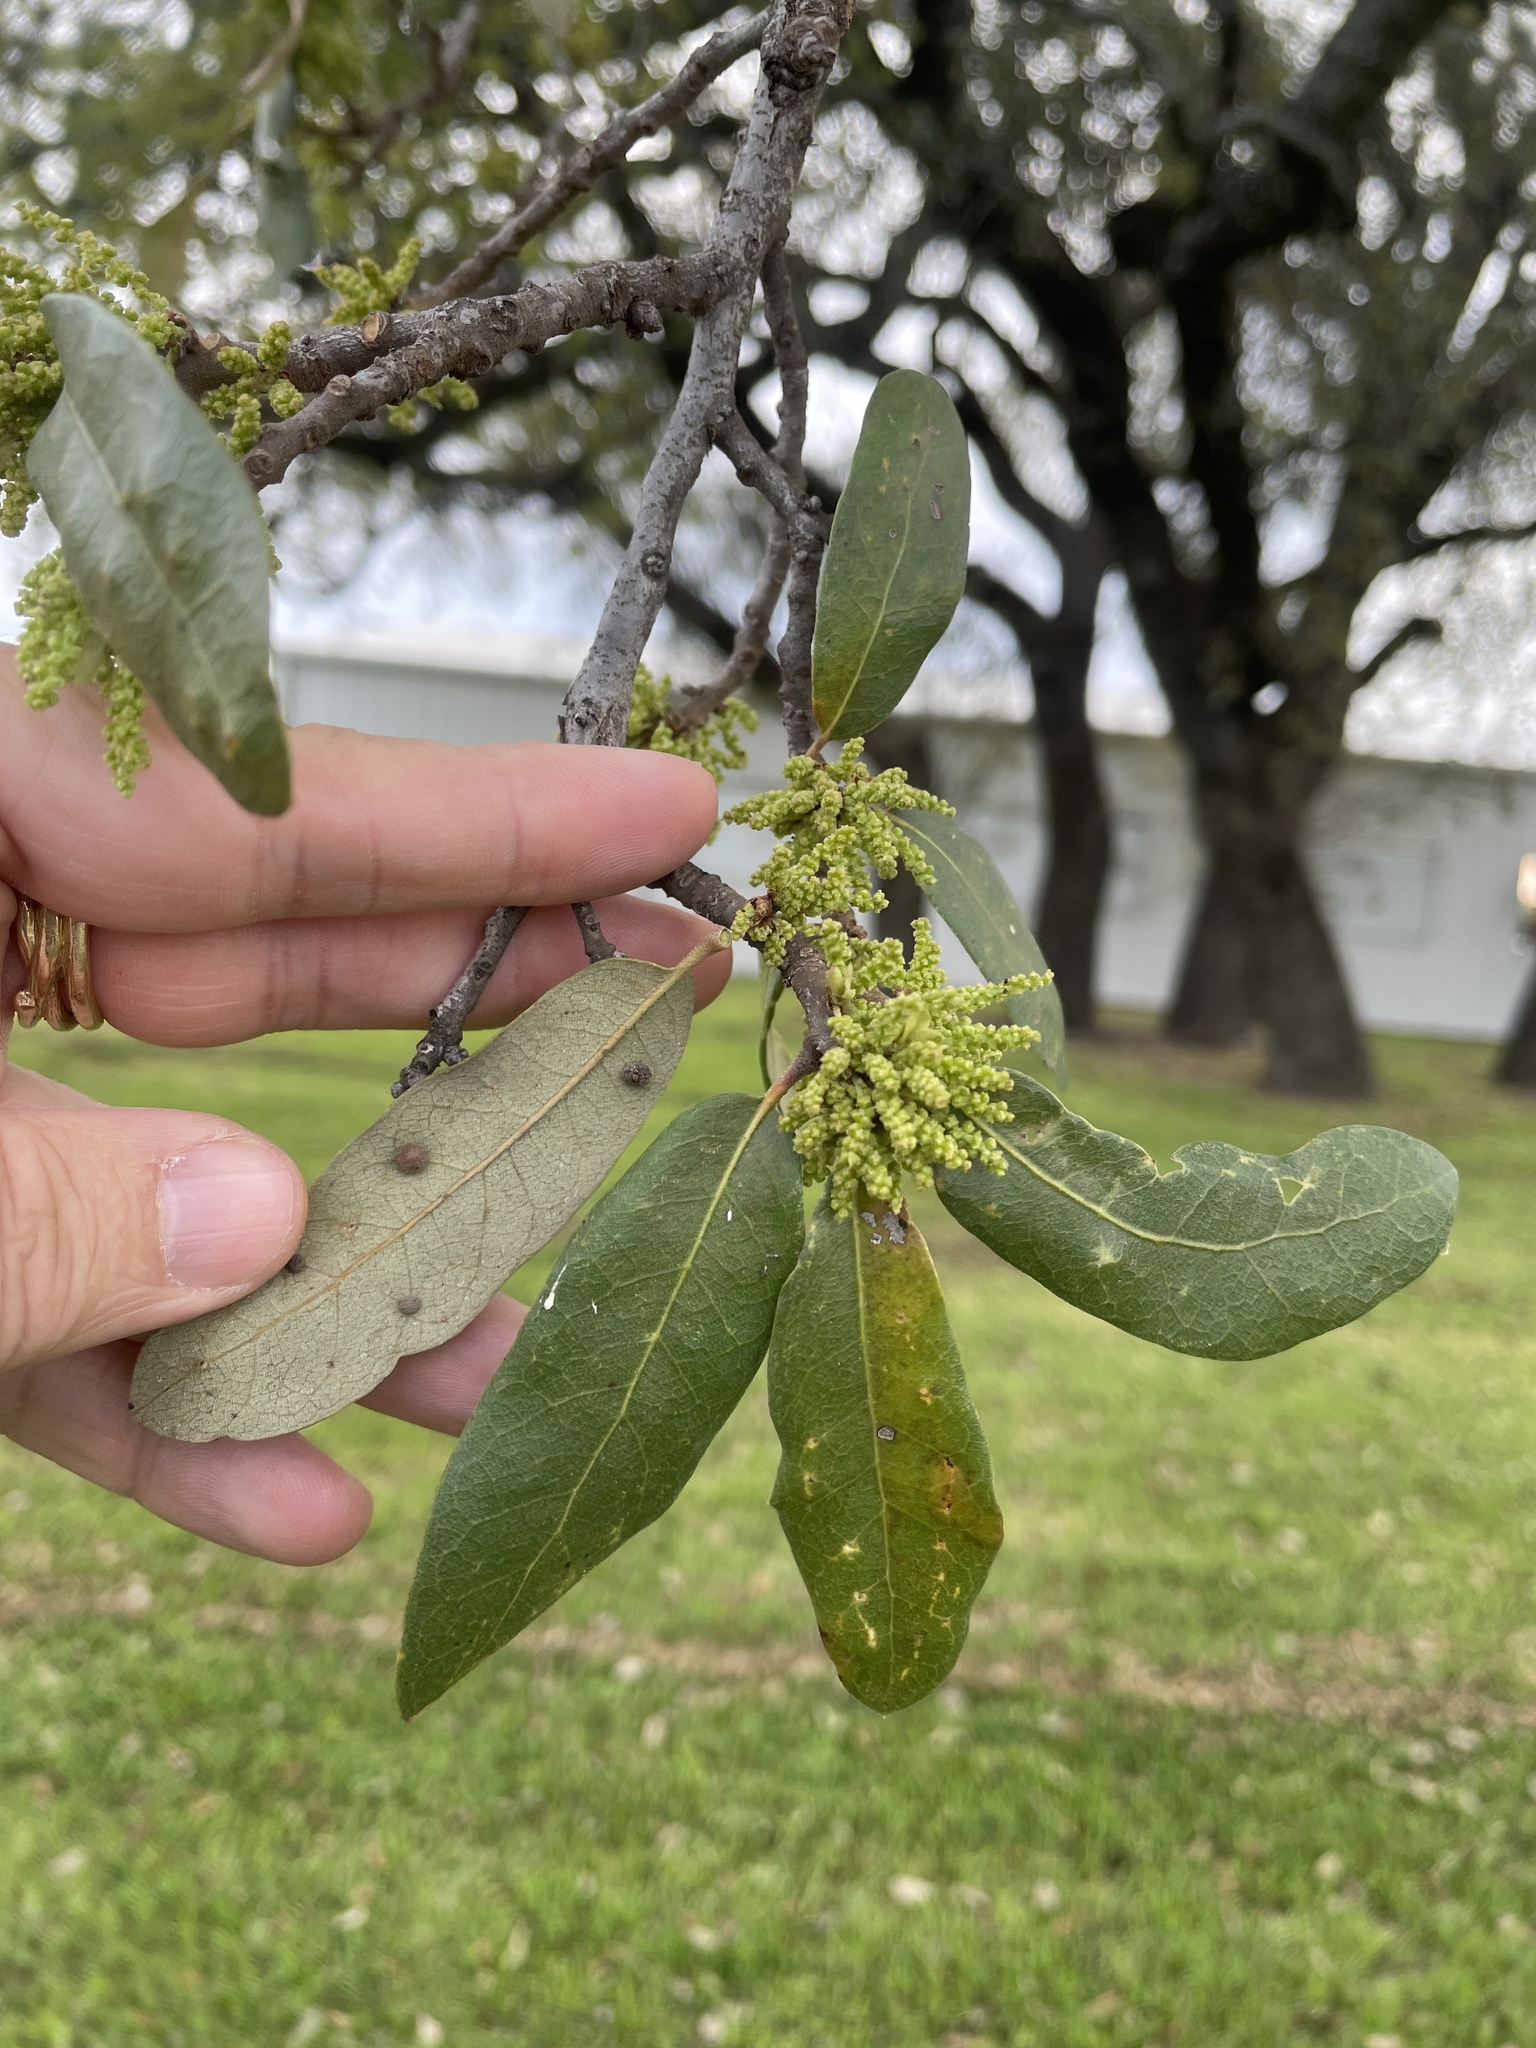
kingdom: Plantae
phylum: Tracheophyta
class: Magnoliopsida
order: Fagales
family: Fagaceae
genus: Quercus
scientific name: Quercus fusiformis
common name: Texas live oak
